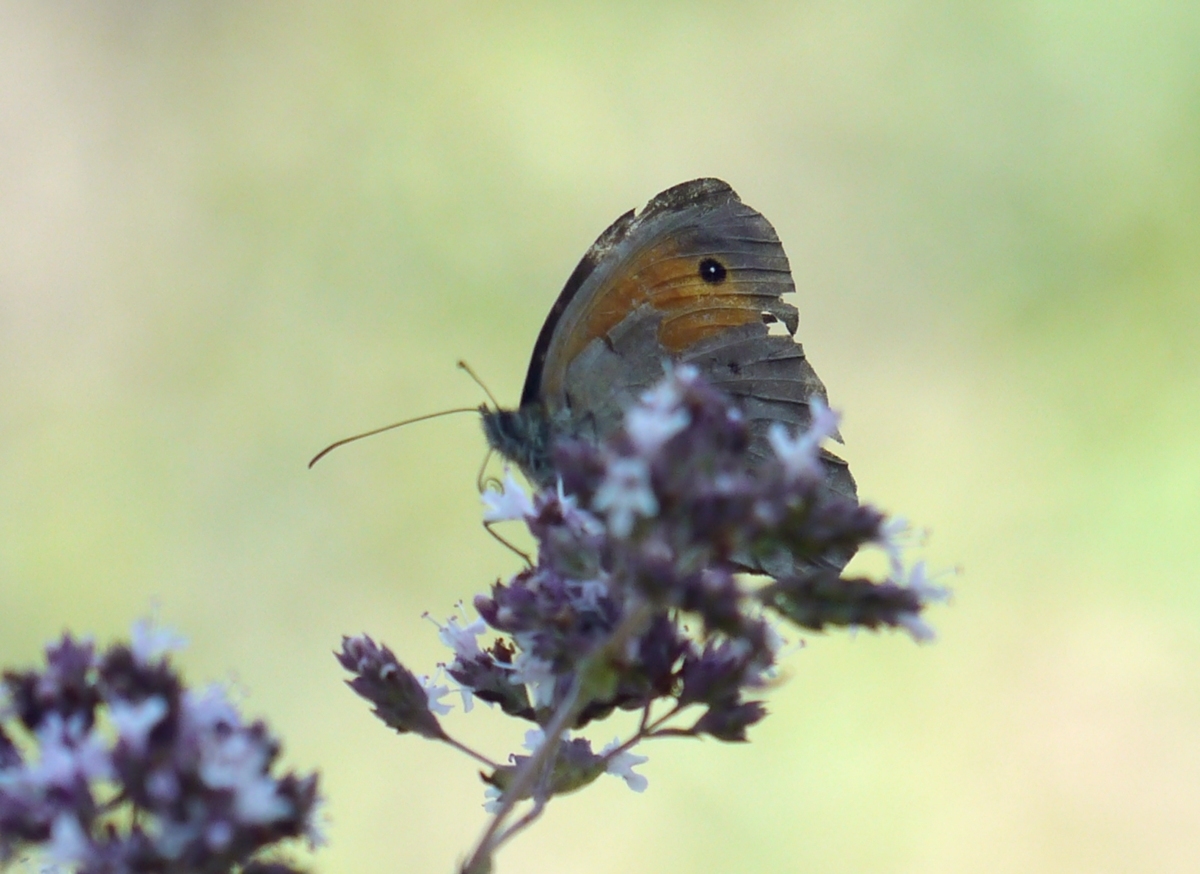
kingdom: Animalia
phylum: Arthropoda
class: Insecta
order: Lepidoptera
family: Nymphalidae
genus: Maniola
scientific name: Maniola jurtina
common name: Meadow brown
